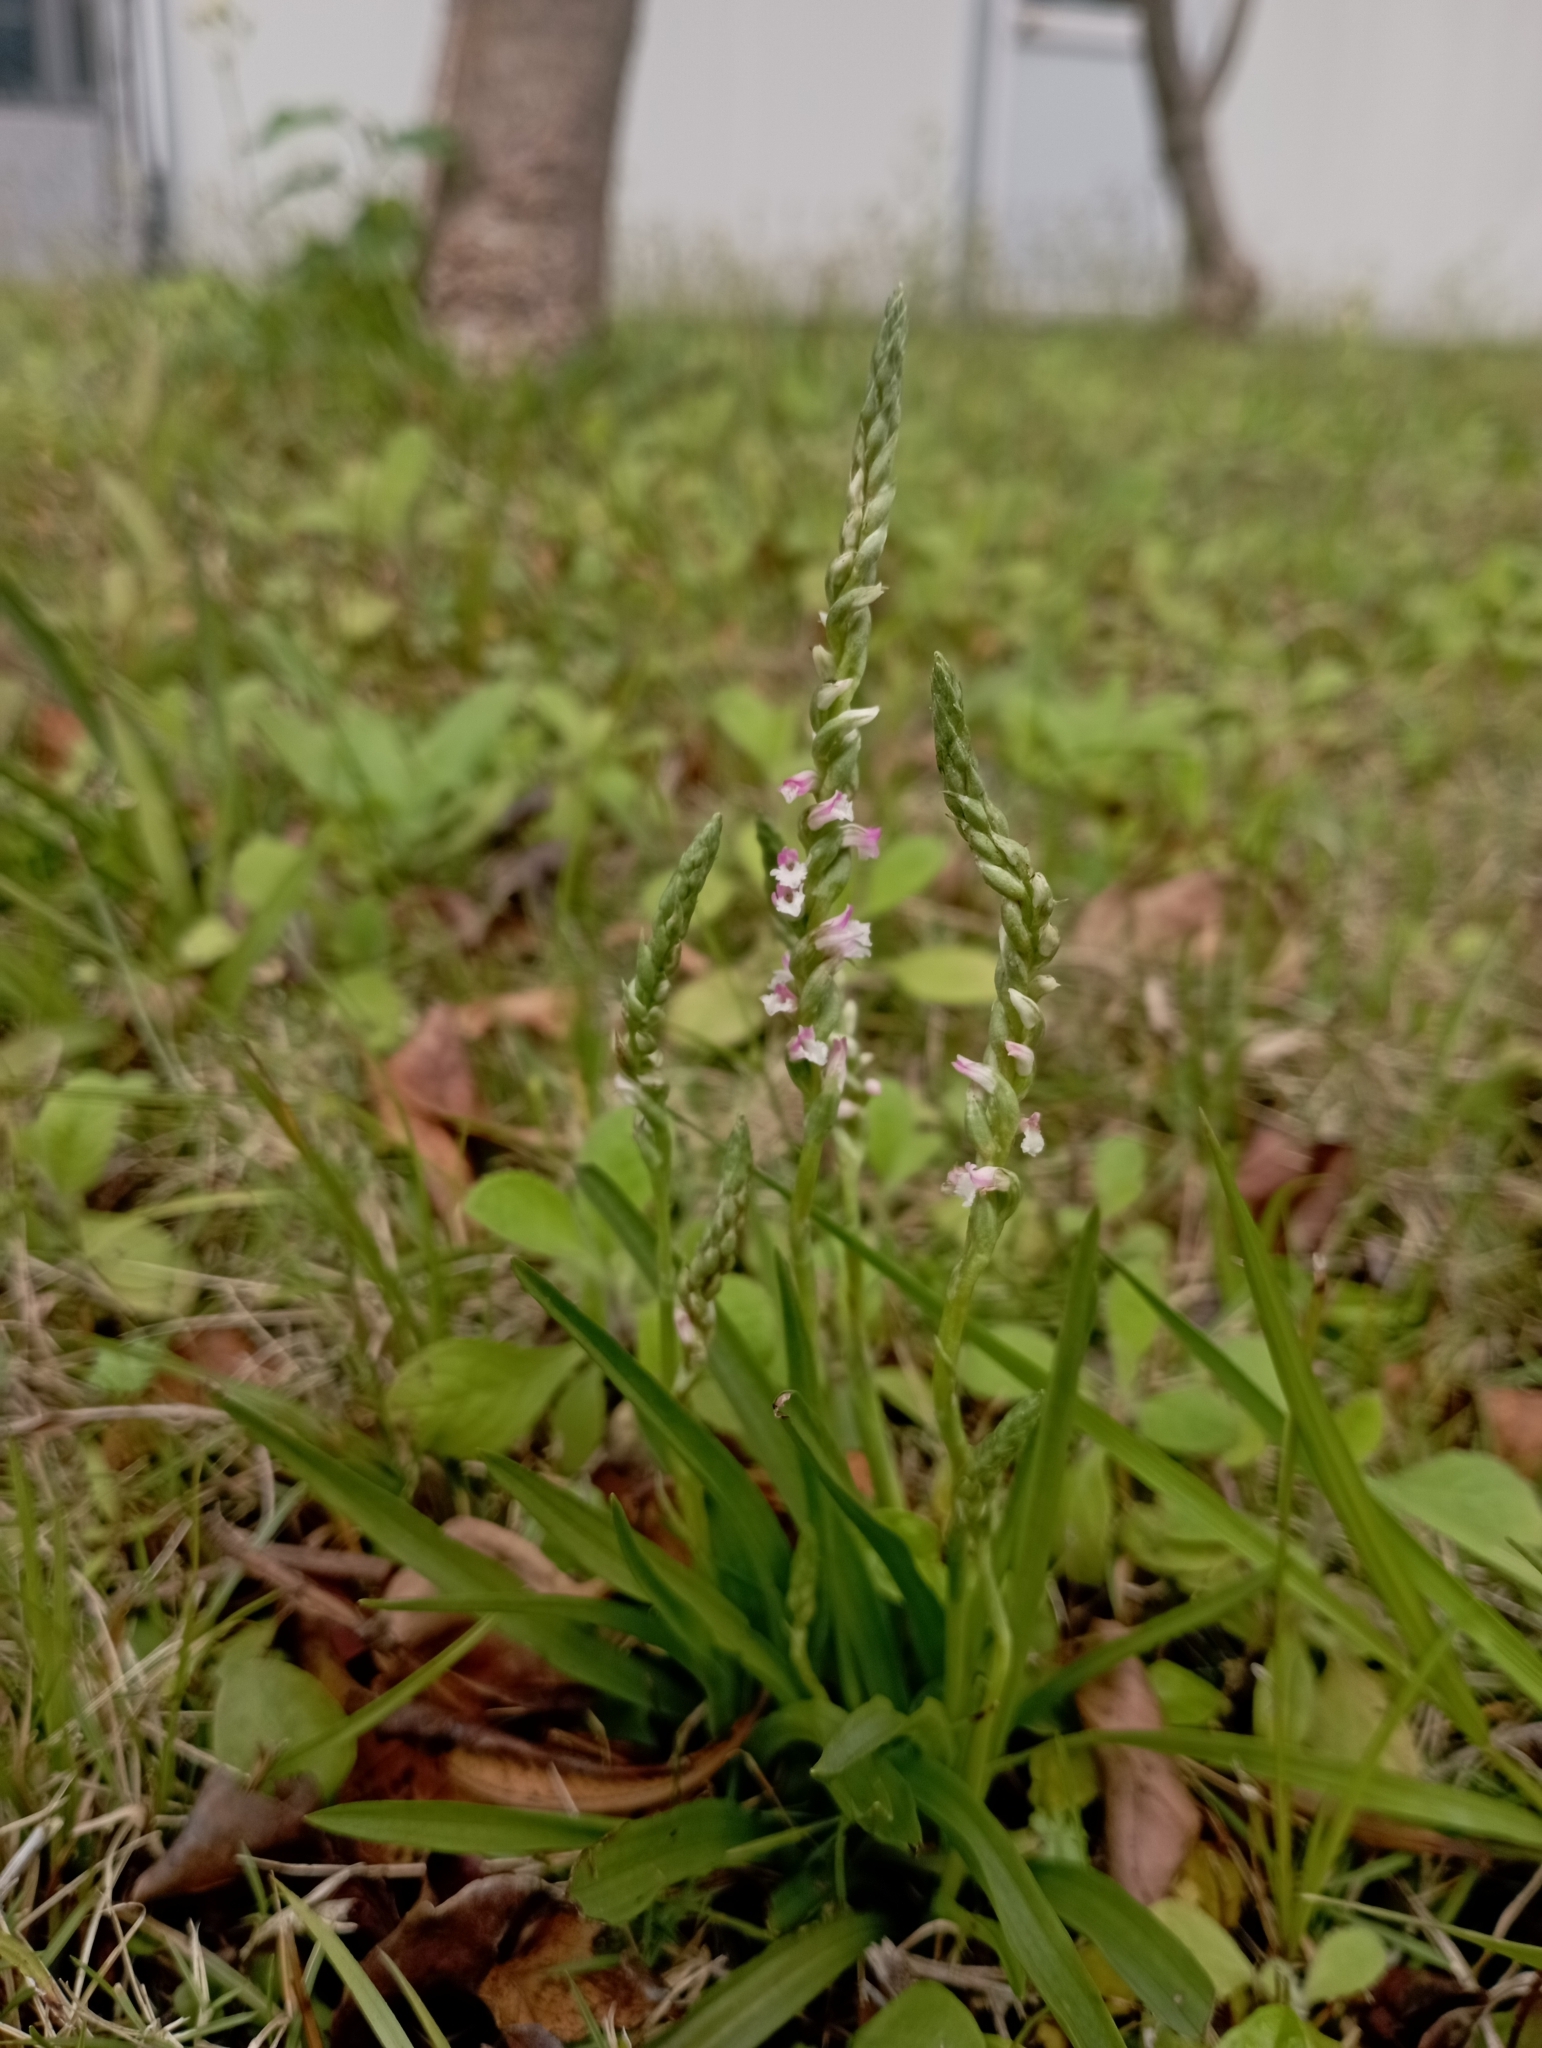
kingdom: Plantae
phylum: Tracheophyta
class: Liliopsida
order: Asparagales
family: Orchidaceae
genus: Spiranthes
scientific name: Spiranthes sinensis
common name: Chinese spiranthes
